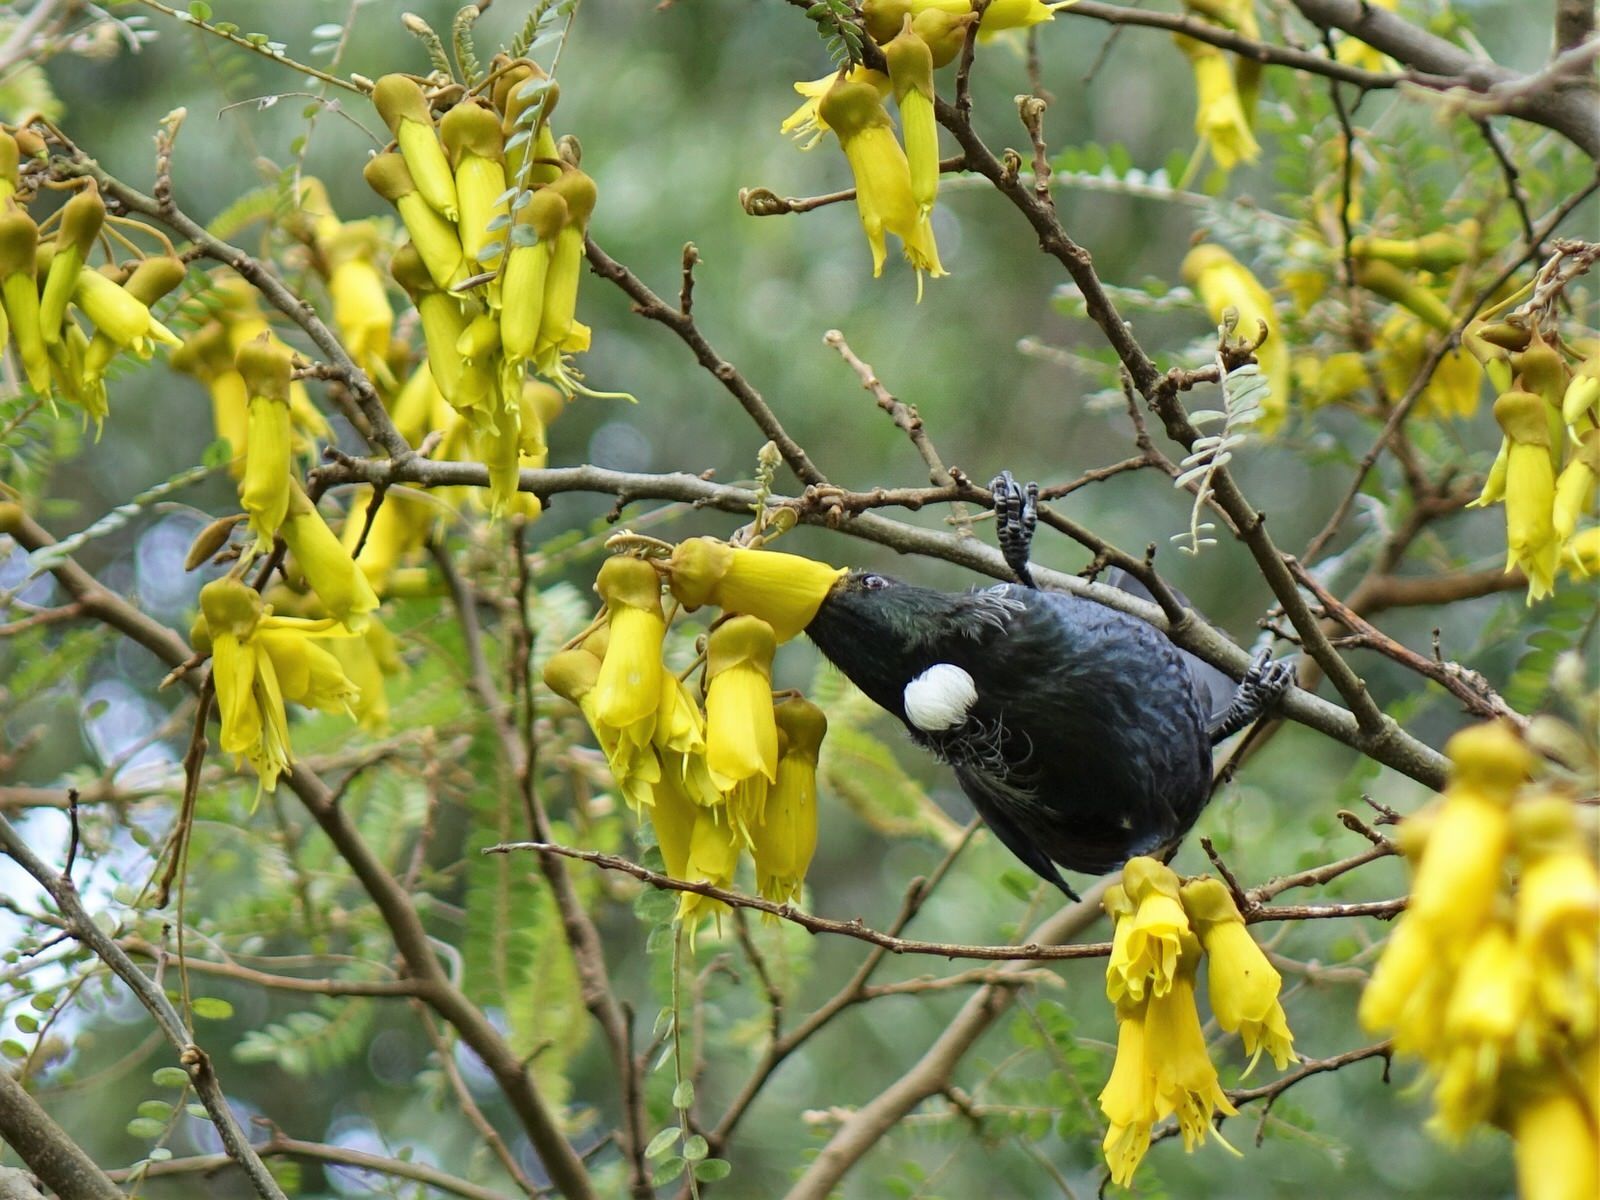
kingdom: Animalia
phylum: Chordata
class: Aves
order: Passeriformes
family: Meliphagidae
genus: Prosthemadera
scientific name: Prosthemadera novaeseelandiae
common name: Tui
